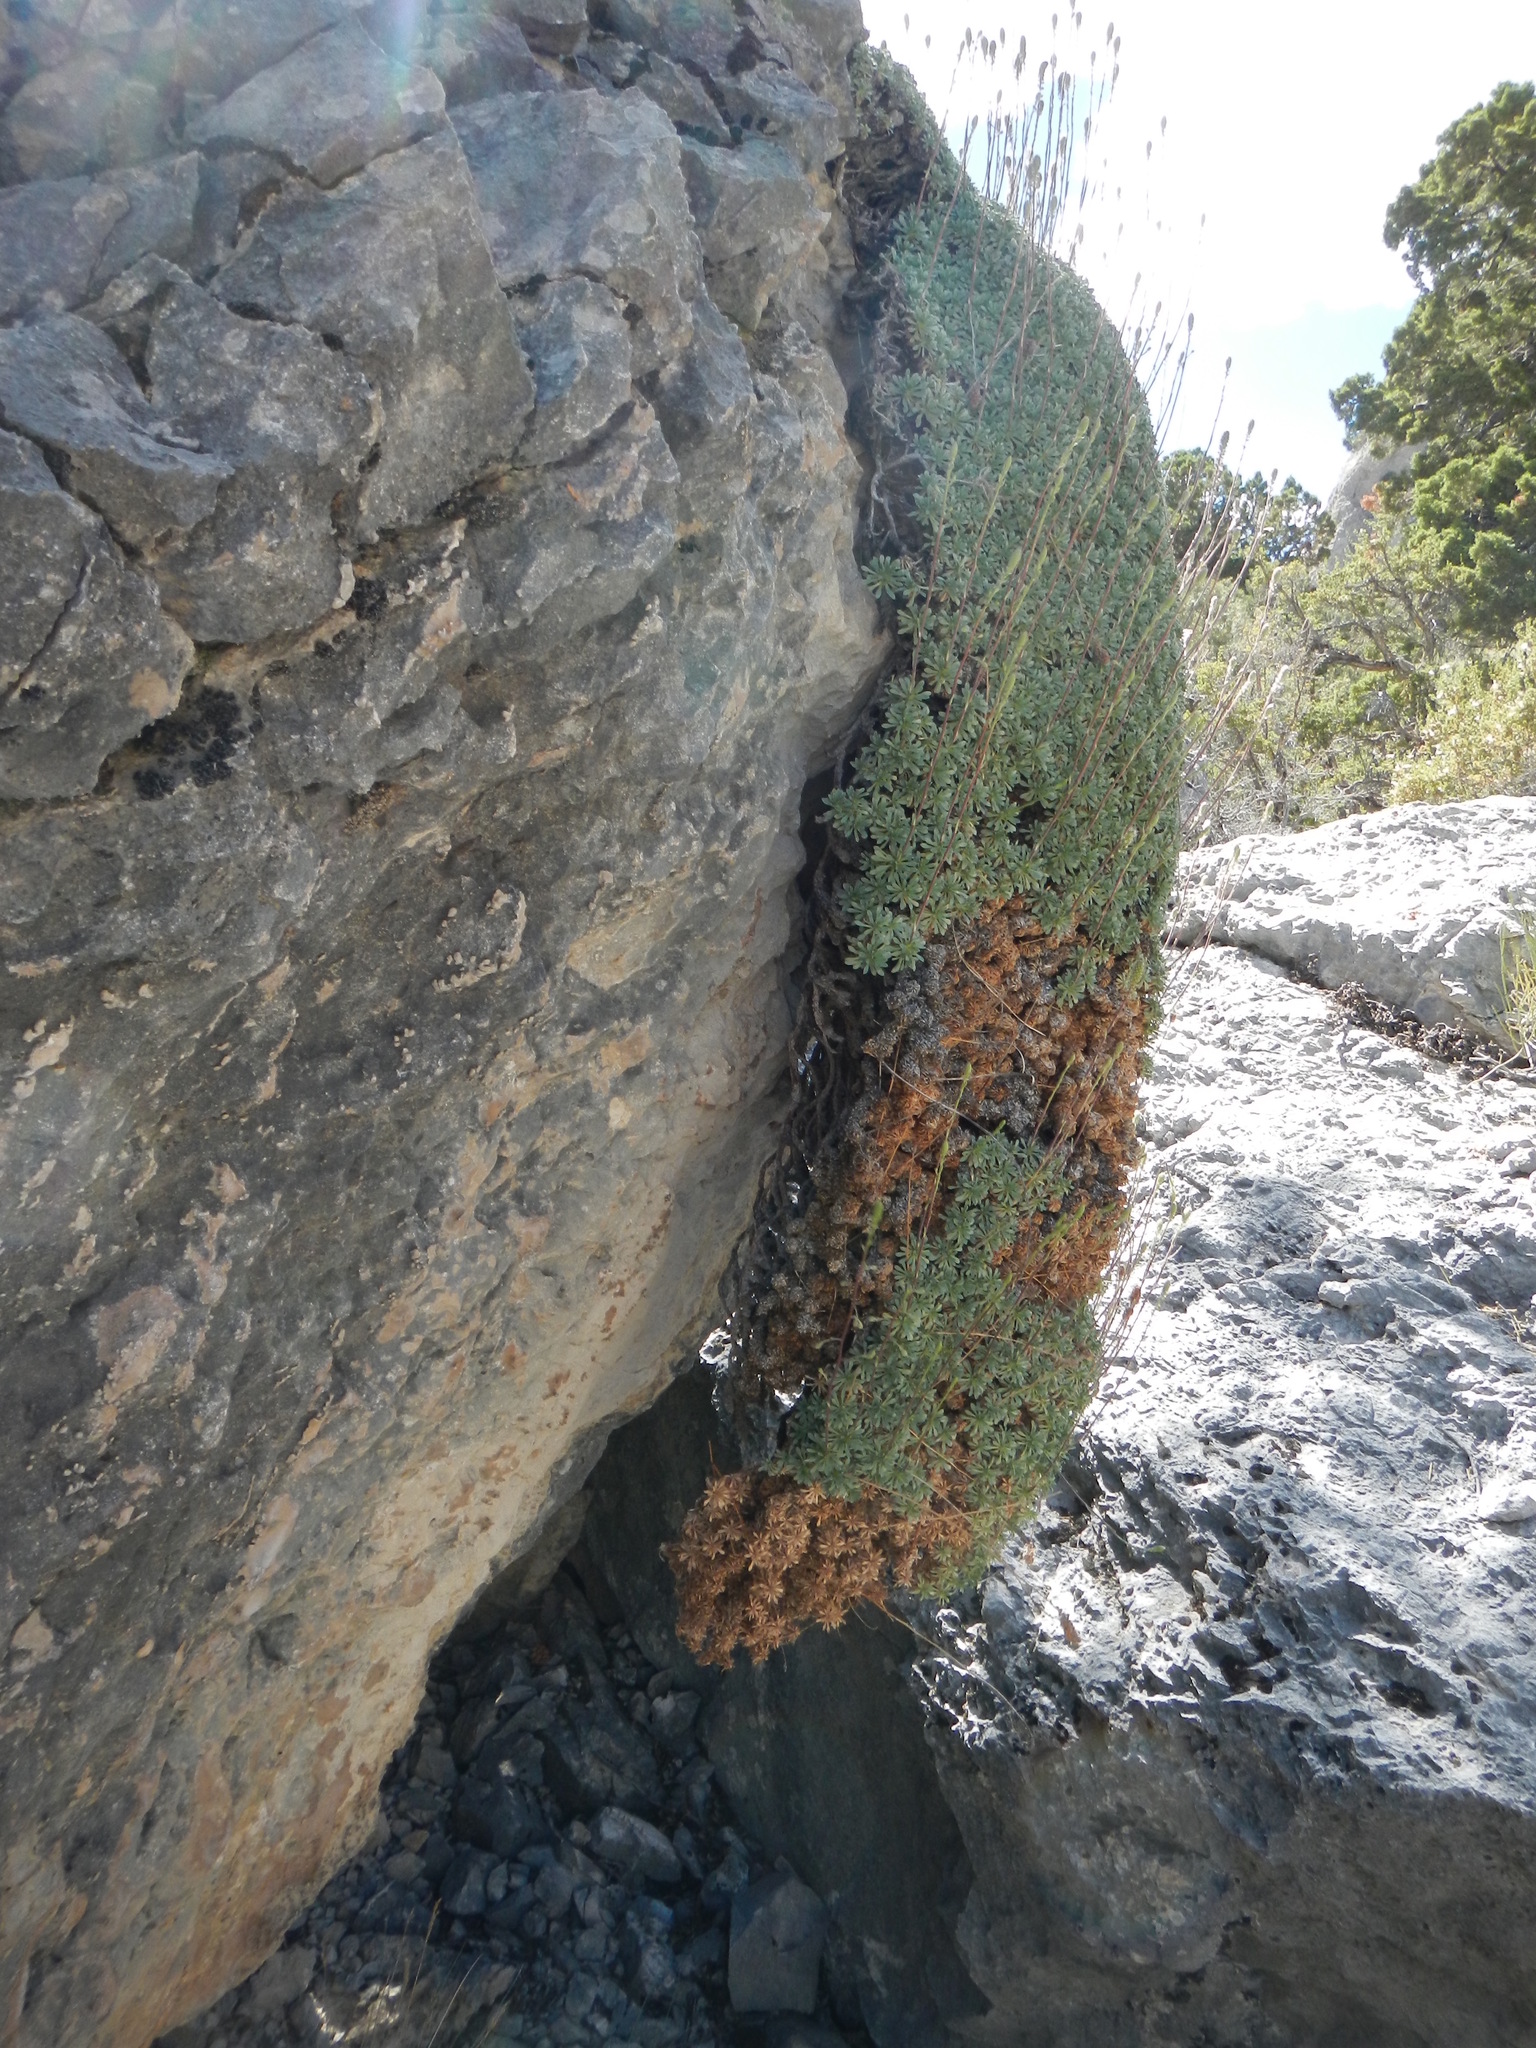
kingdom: Plantae
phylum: Tracheophyta
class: Magnoliopsida
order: Rosales
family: Rosaceae
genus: Petrophytum
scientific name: Petrophytum caespitosum
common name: Mat rockspirea
